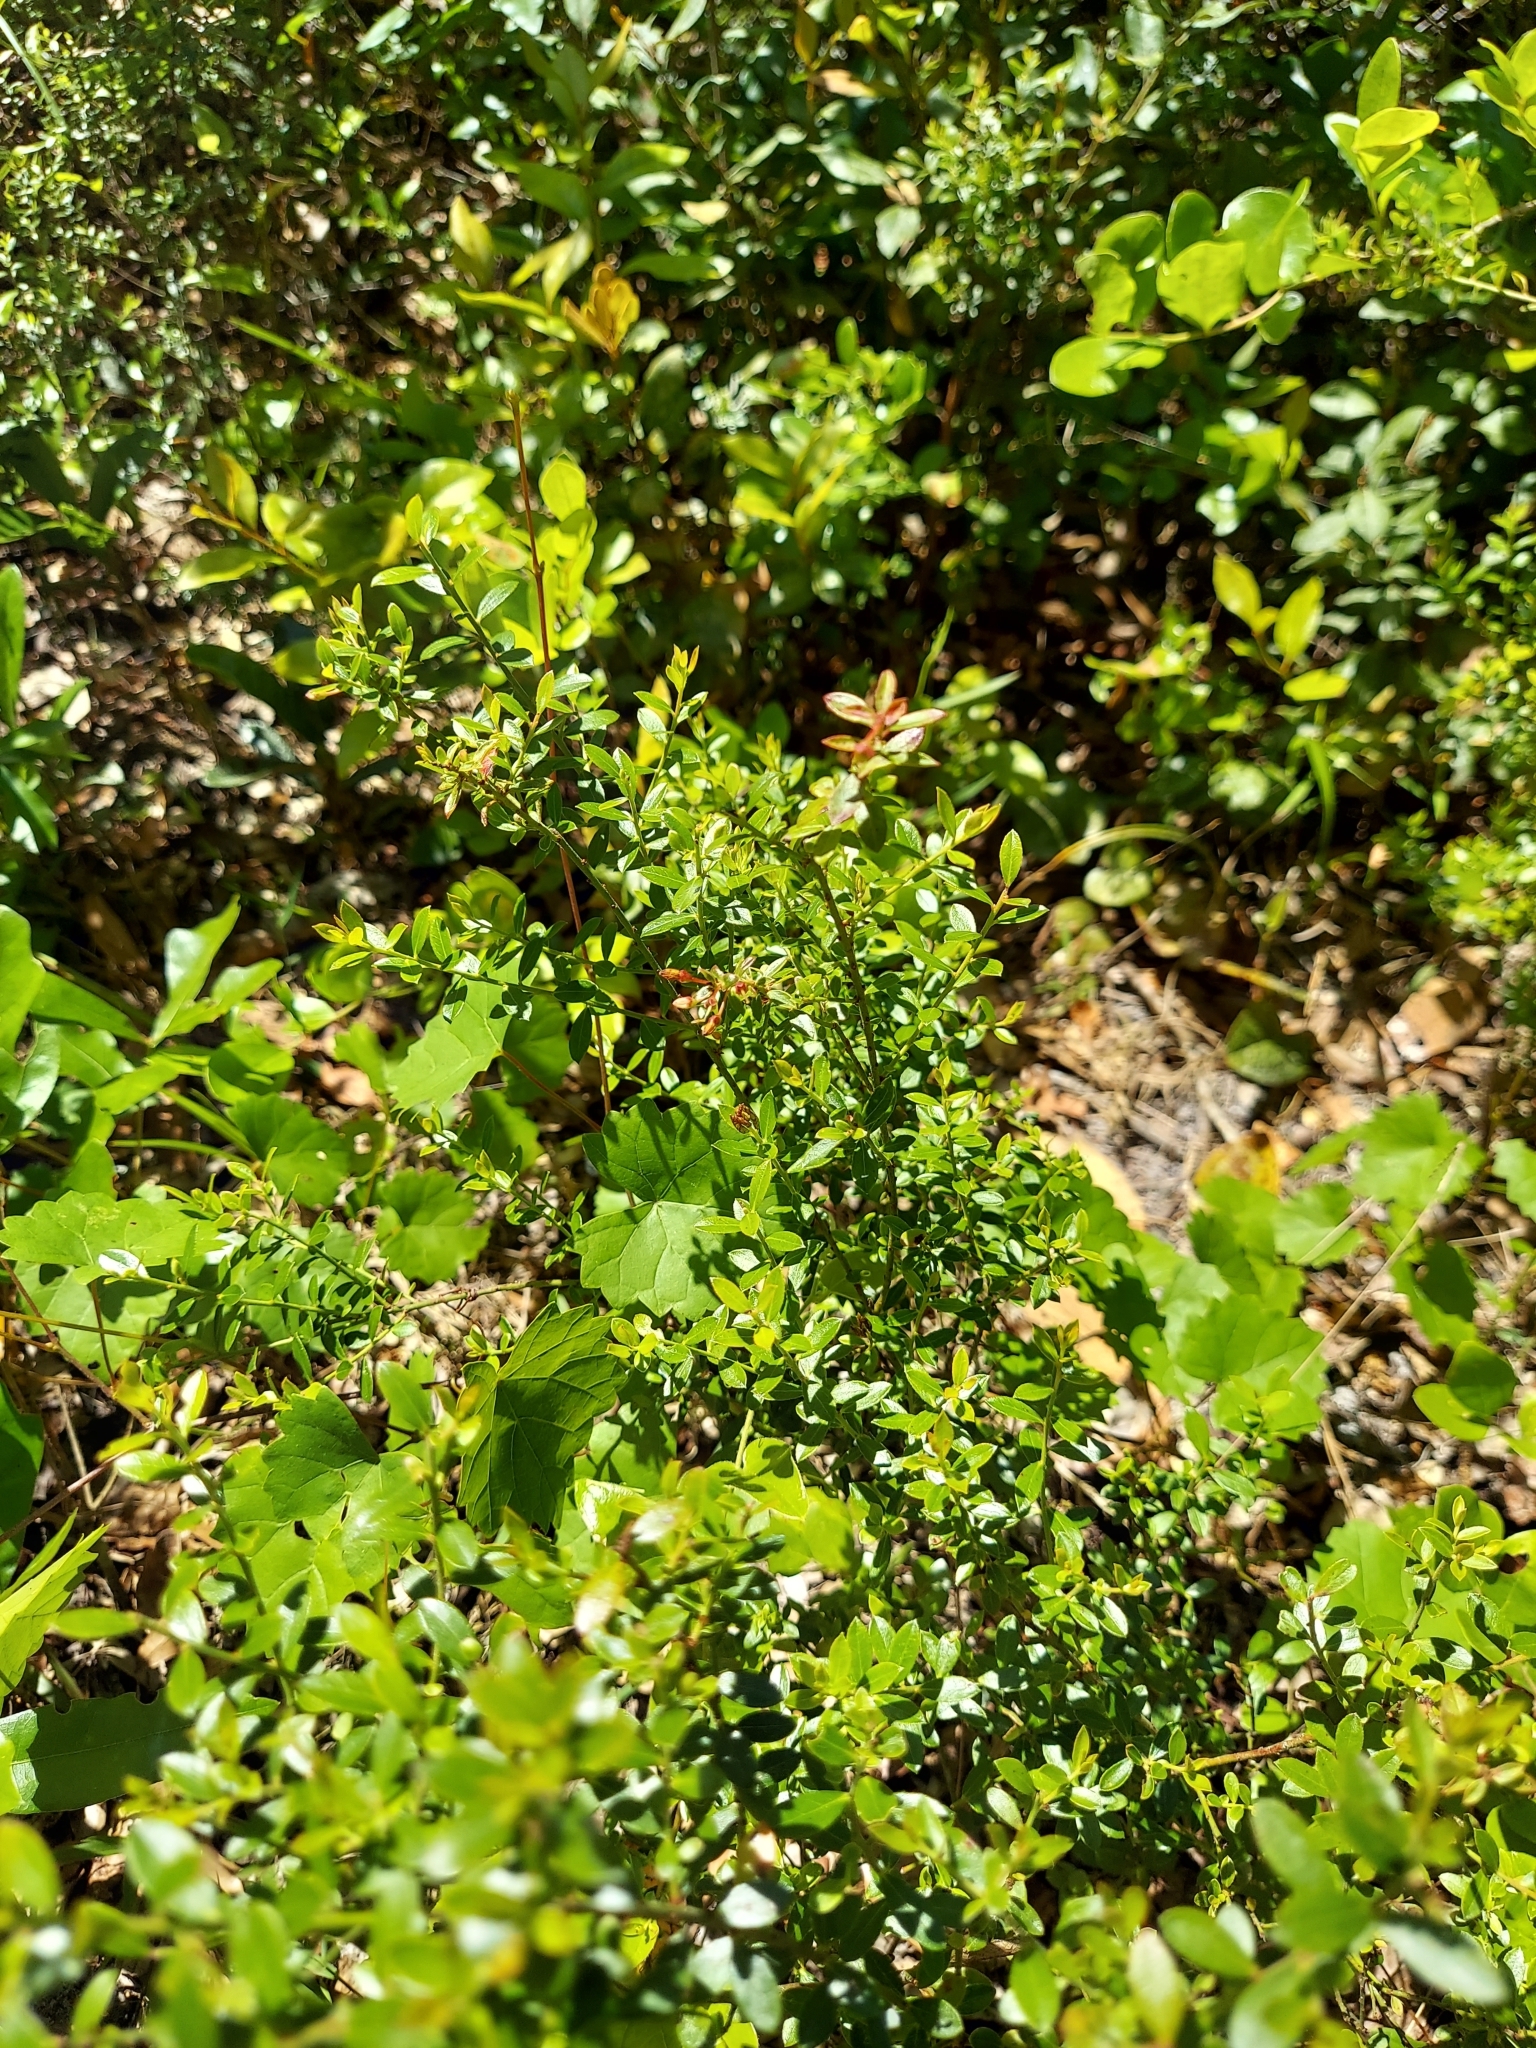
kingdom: Plantae
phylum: Tracheophyta
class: Magnoliopsida
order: Ericales
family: Ericaceae
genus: Vaccinium
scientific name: Vaccinium myrsinites
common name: Evergreen blueberry
